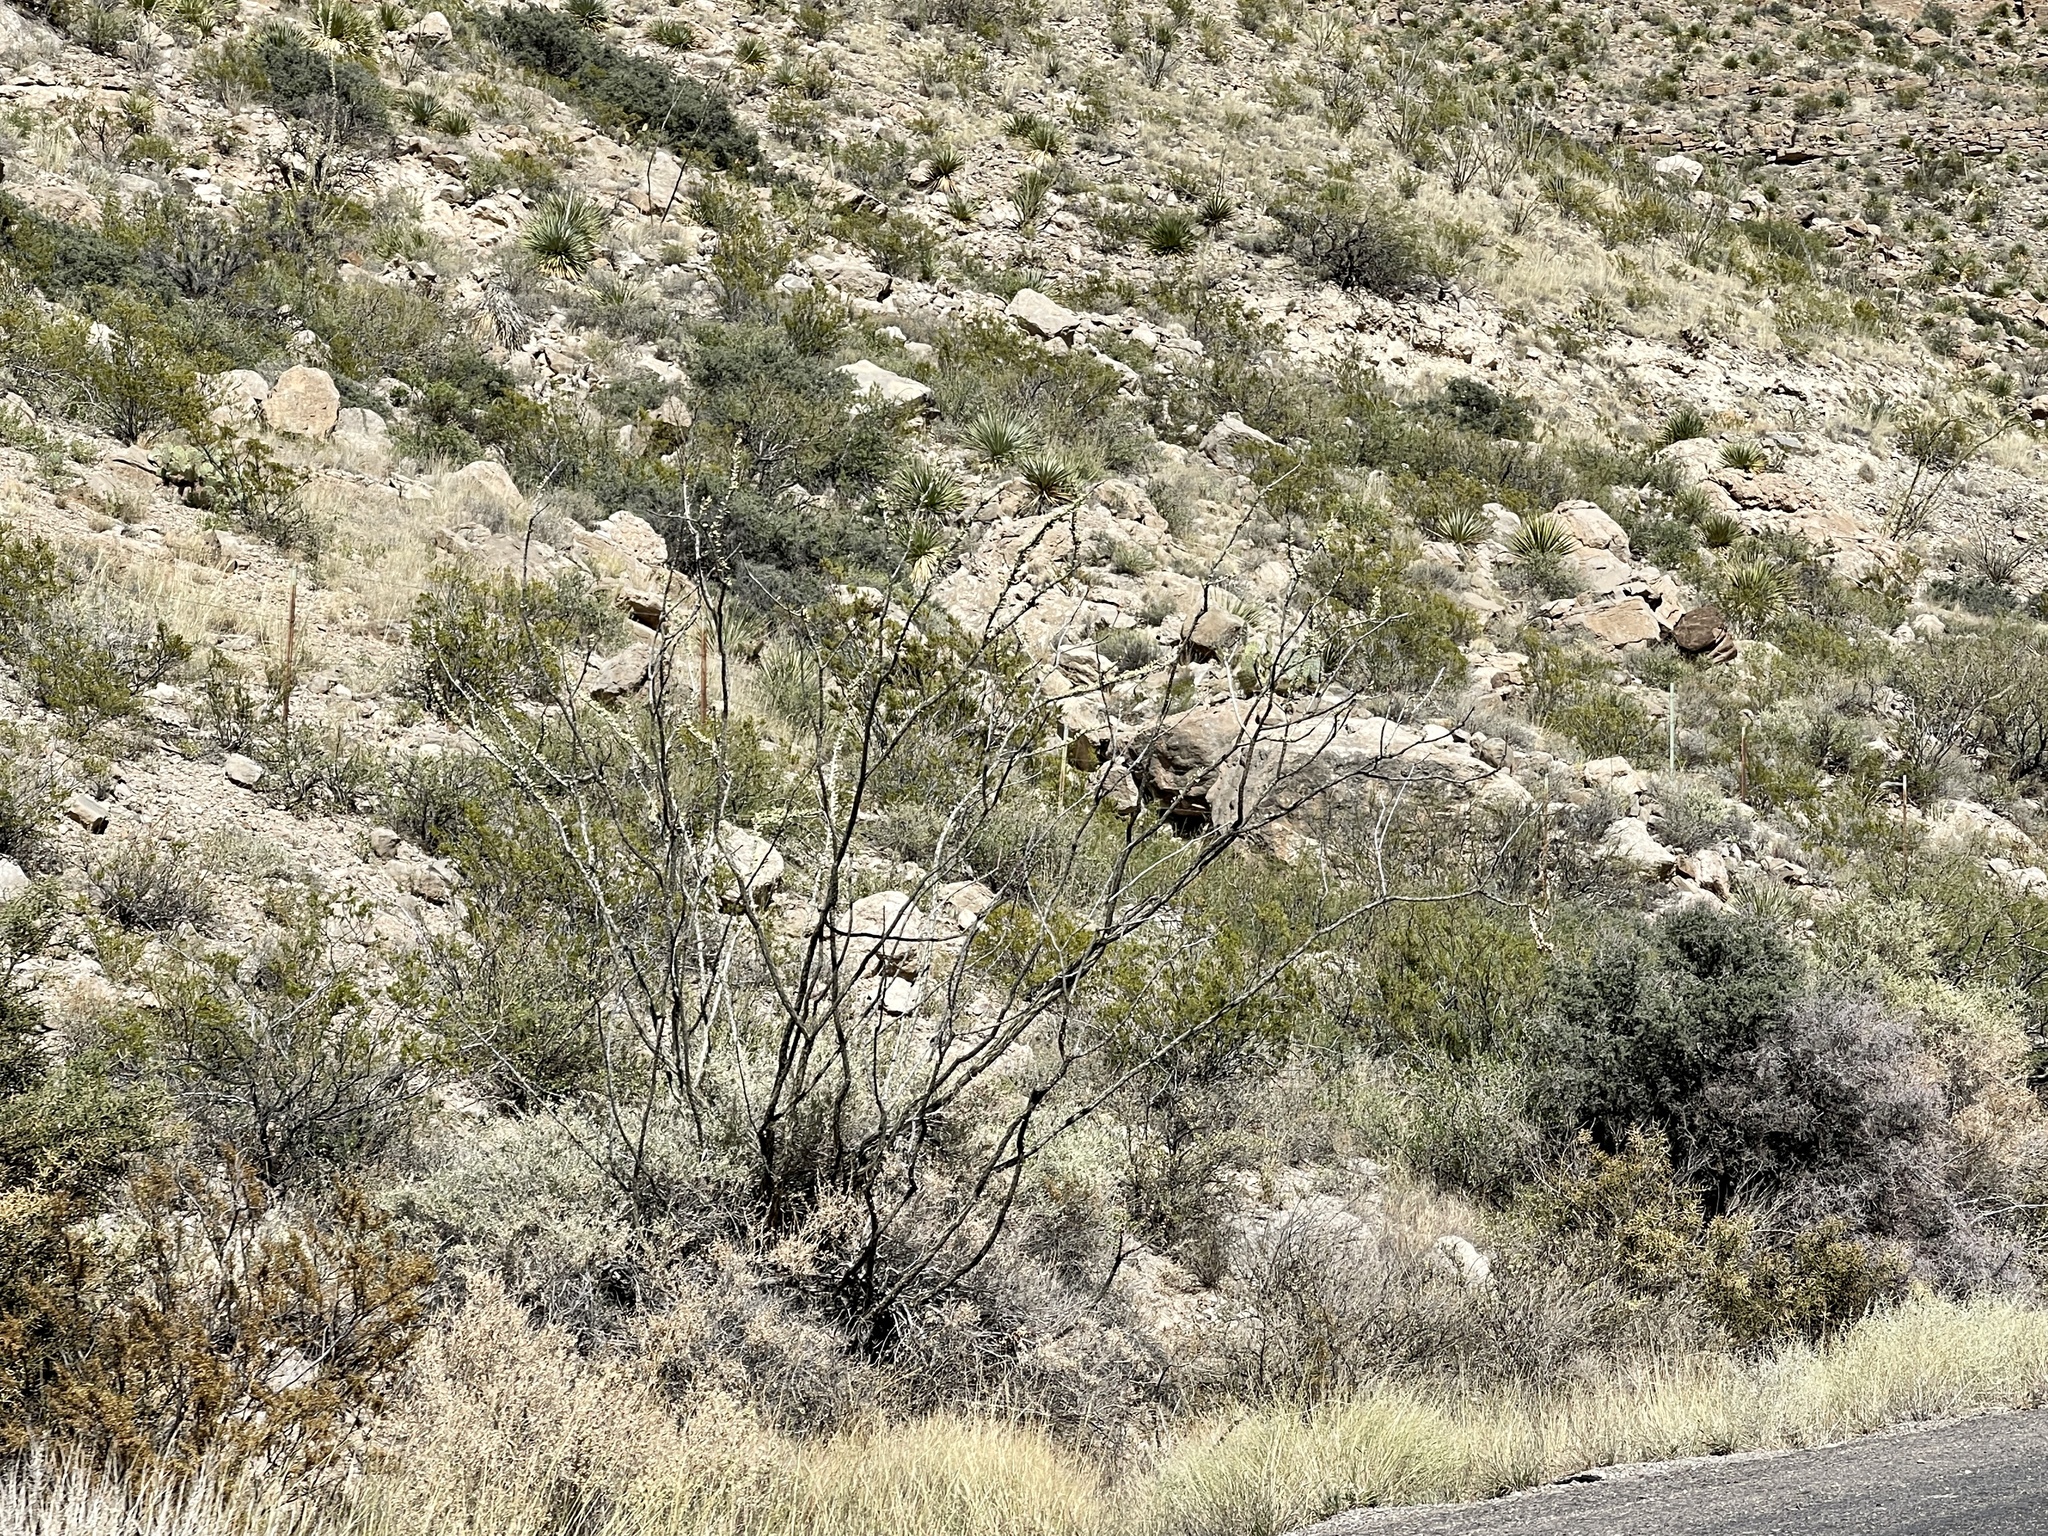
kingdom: Plantae
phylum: Tracheophyta
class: Magnoliopsida
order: Ericales
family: Fouquieriaceae
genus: Fouquieria
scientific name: Fouquieria splendens
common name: Vine-cactus
